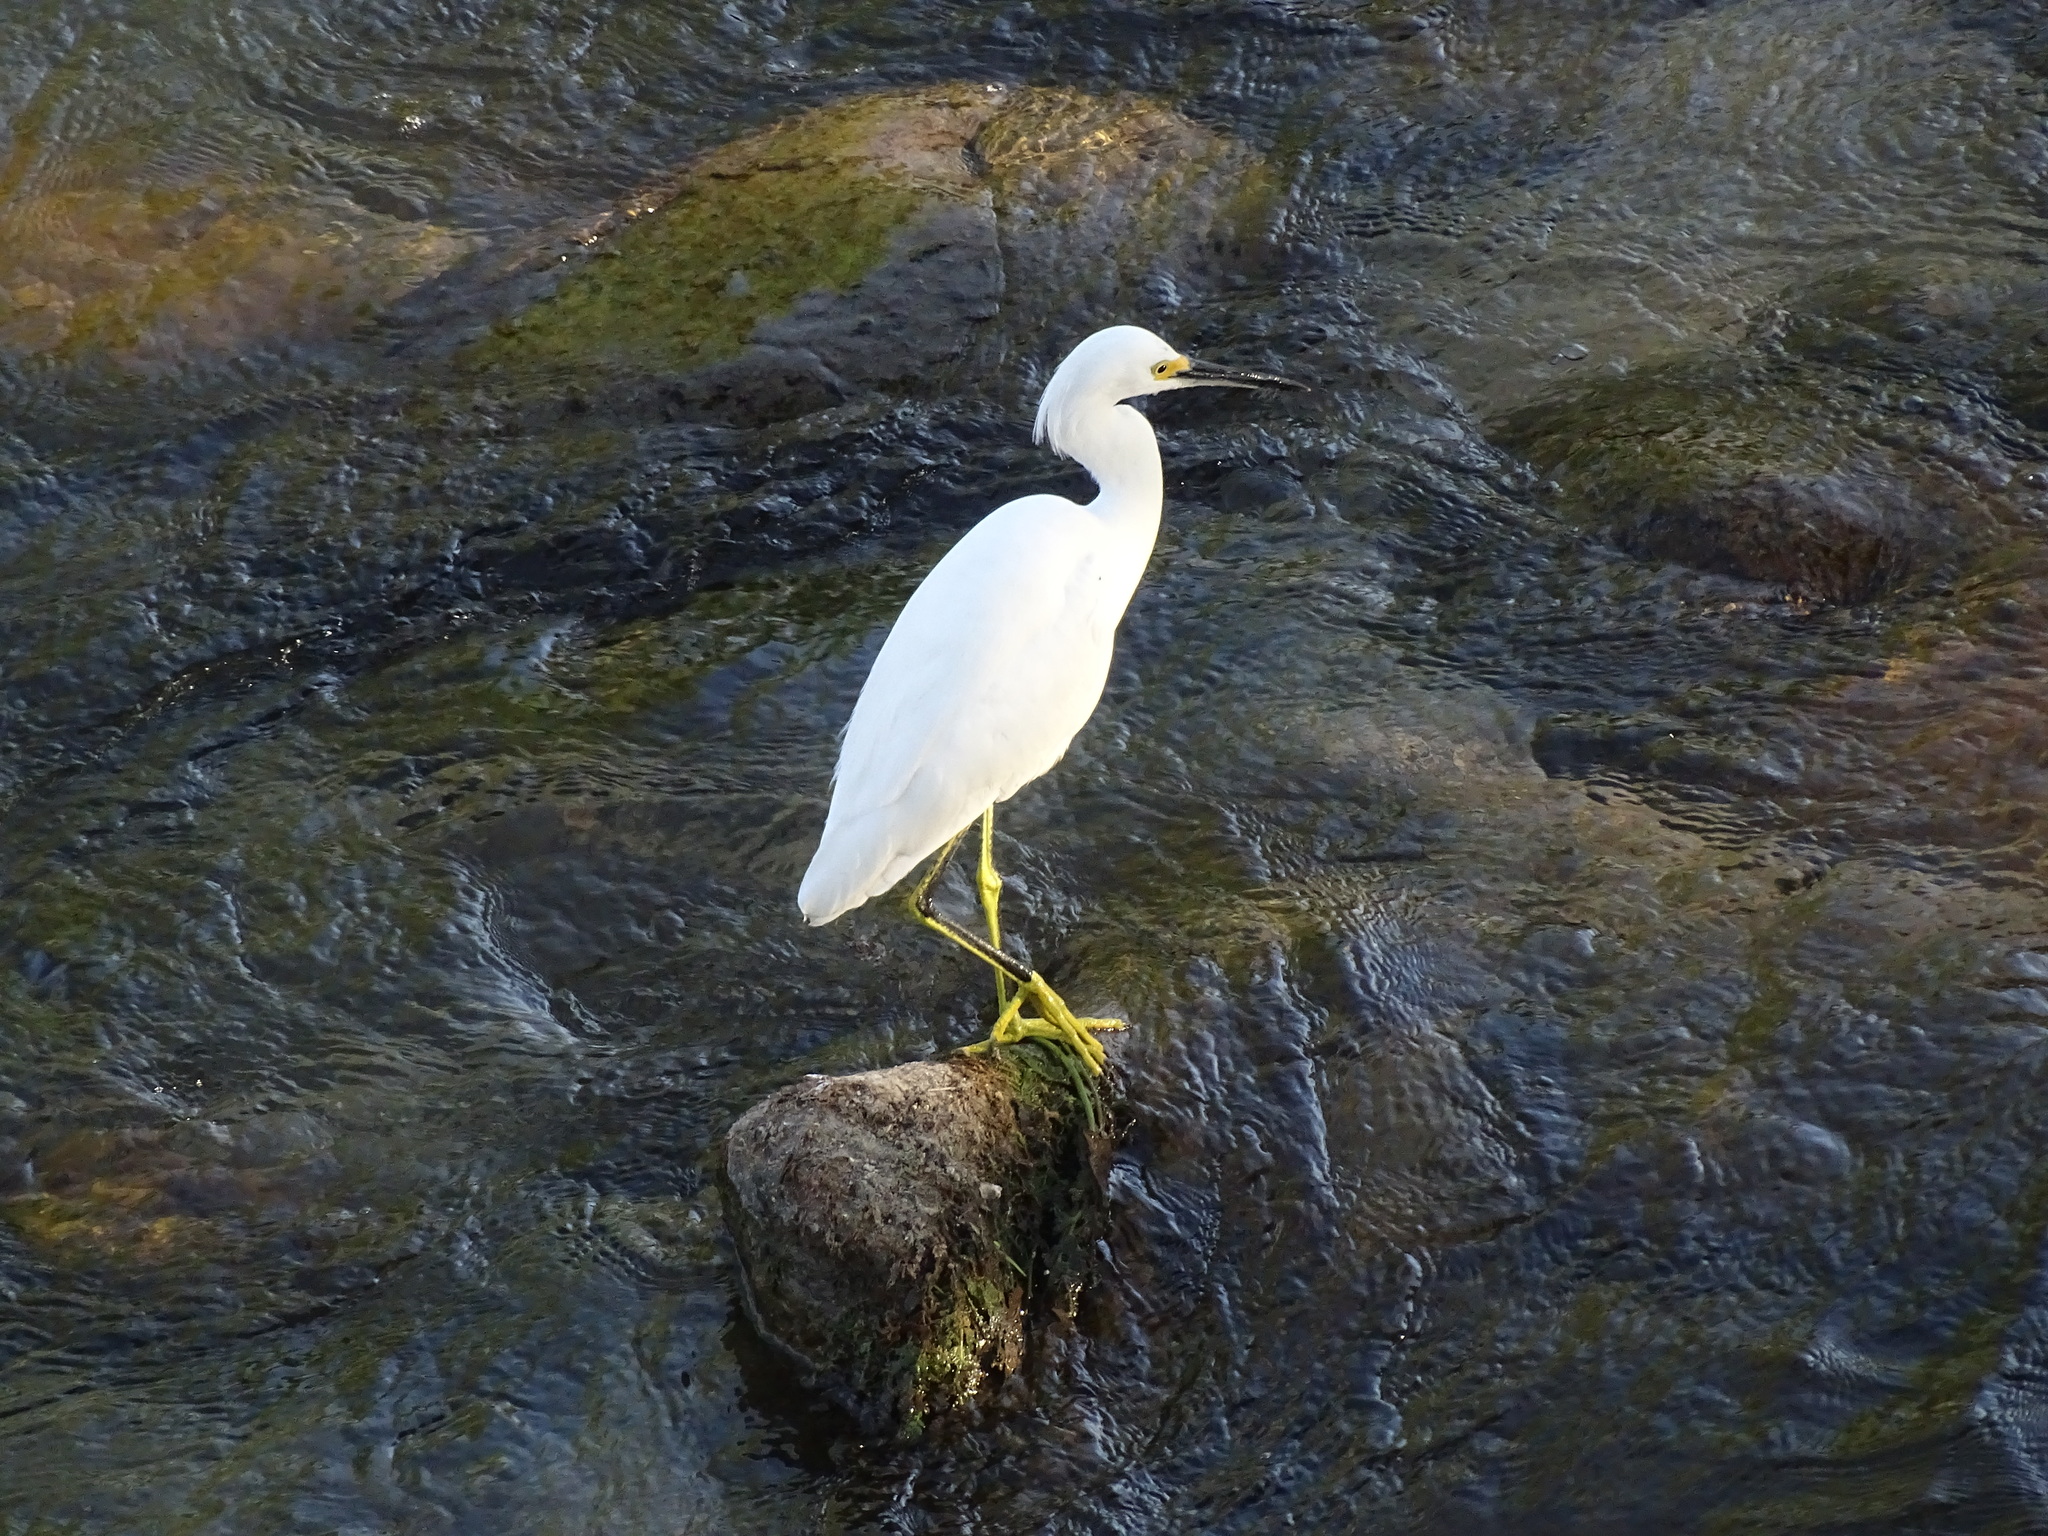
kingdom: Animalia
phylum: Chordata
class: Aves
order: Pelecaniformes
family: Ardeidae
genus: Egretta
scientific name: Egretta thula
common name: Snowy egret
